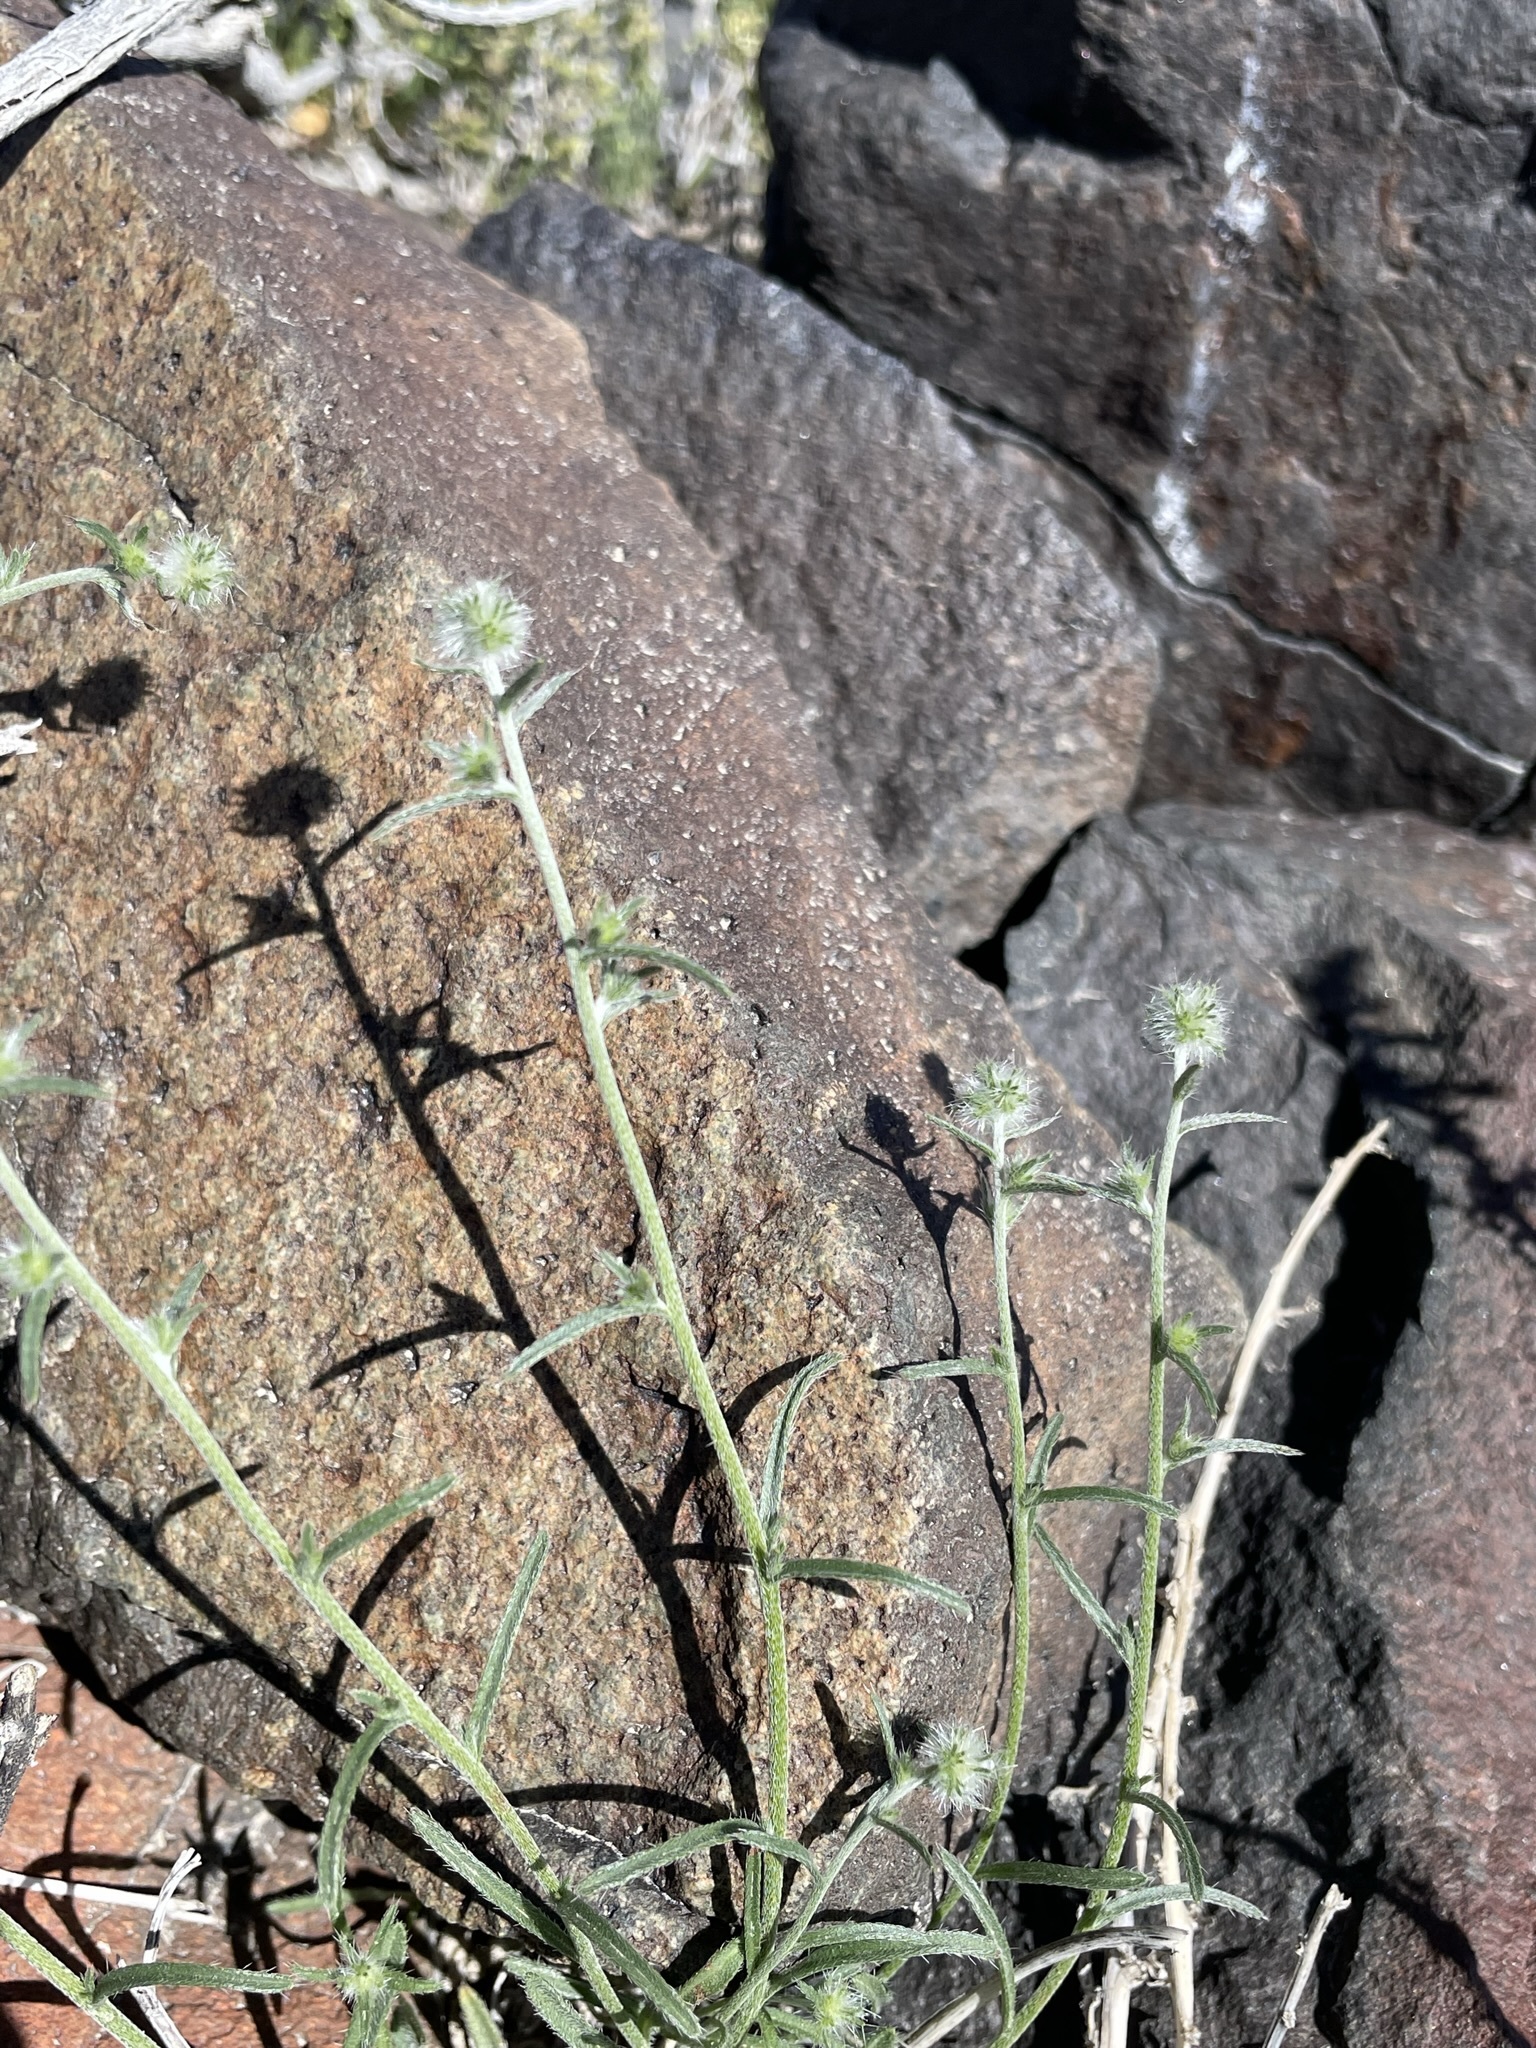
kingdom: Plantae
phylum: Tracheophyta
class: Magnoliopsida
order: Boraginales
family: Boraginaceae
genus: Cryptantha
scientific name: Cryptantha nevadensis
